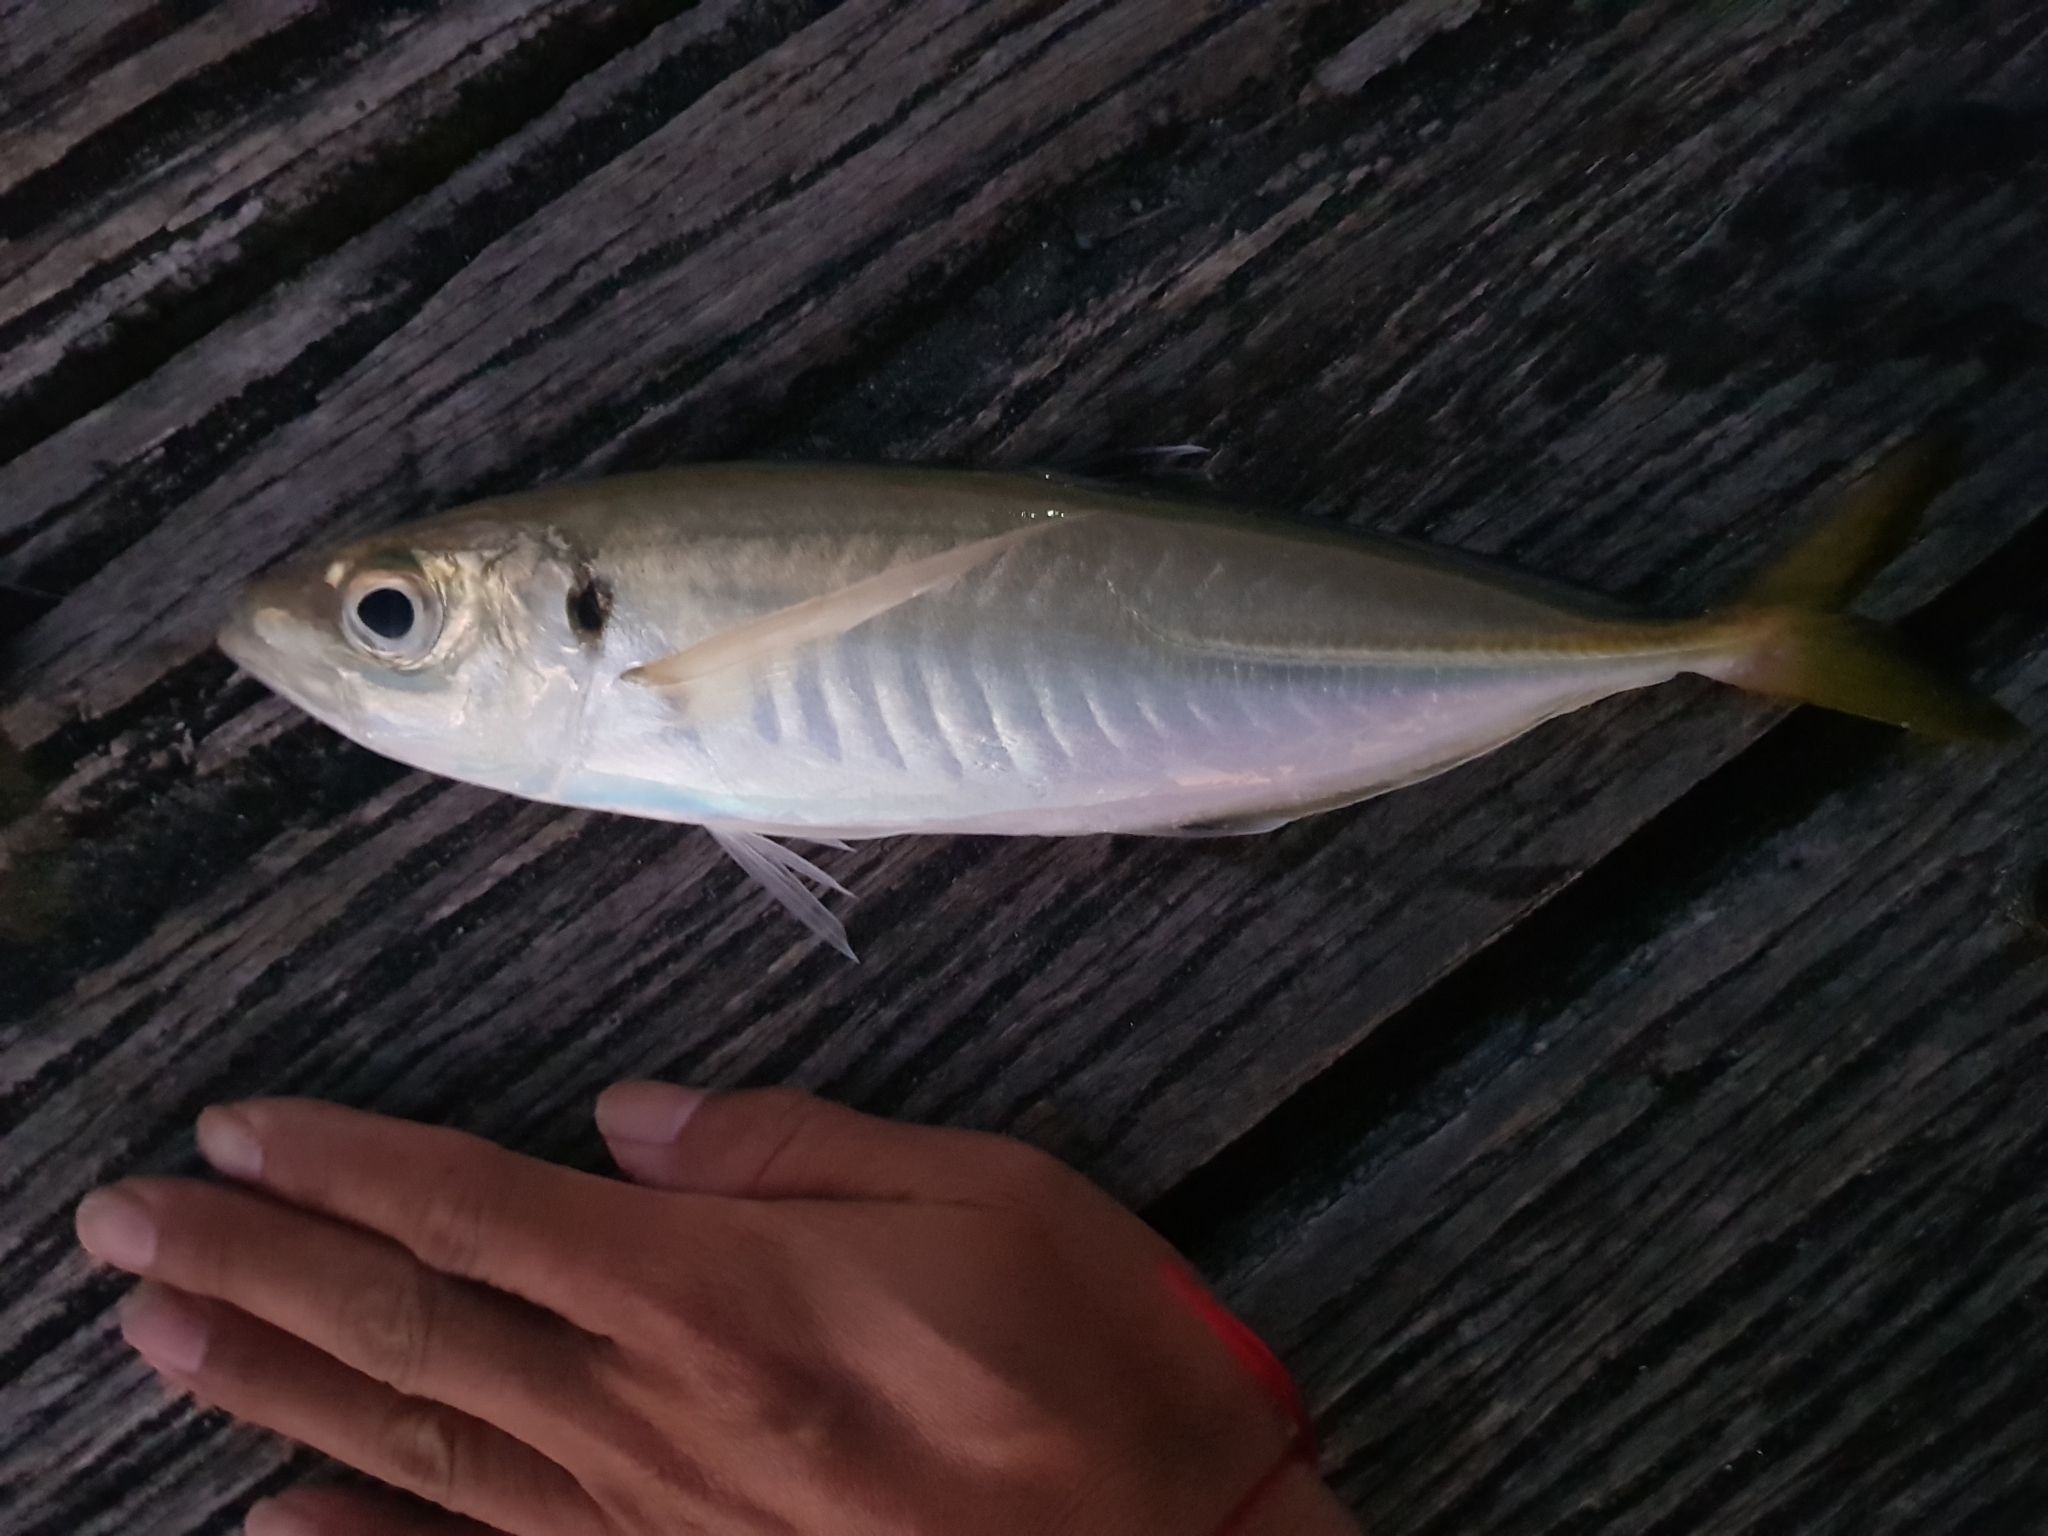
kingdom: Animalia
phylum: Chordata
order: Perciformes
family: Carangidae
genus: Trachurus
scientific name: Trachurus novaezelandiae
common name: Yellowtail horse mackerel
